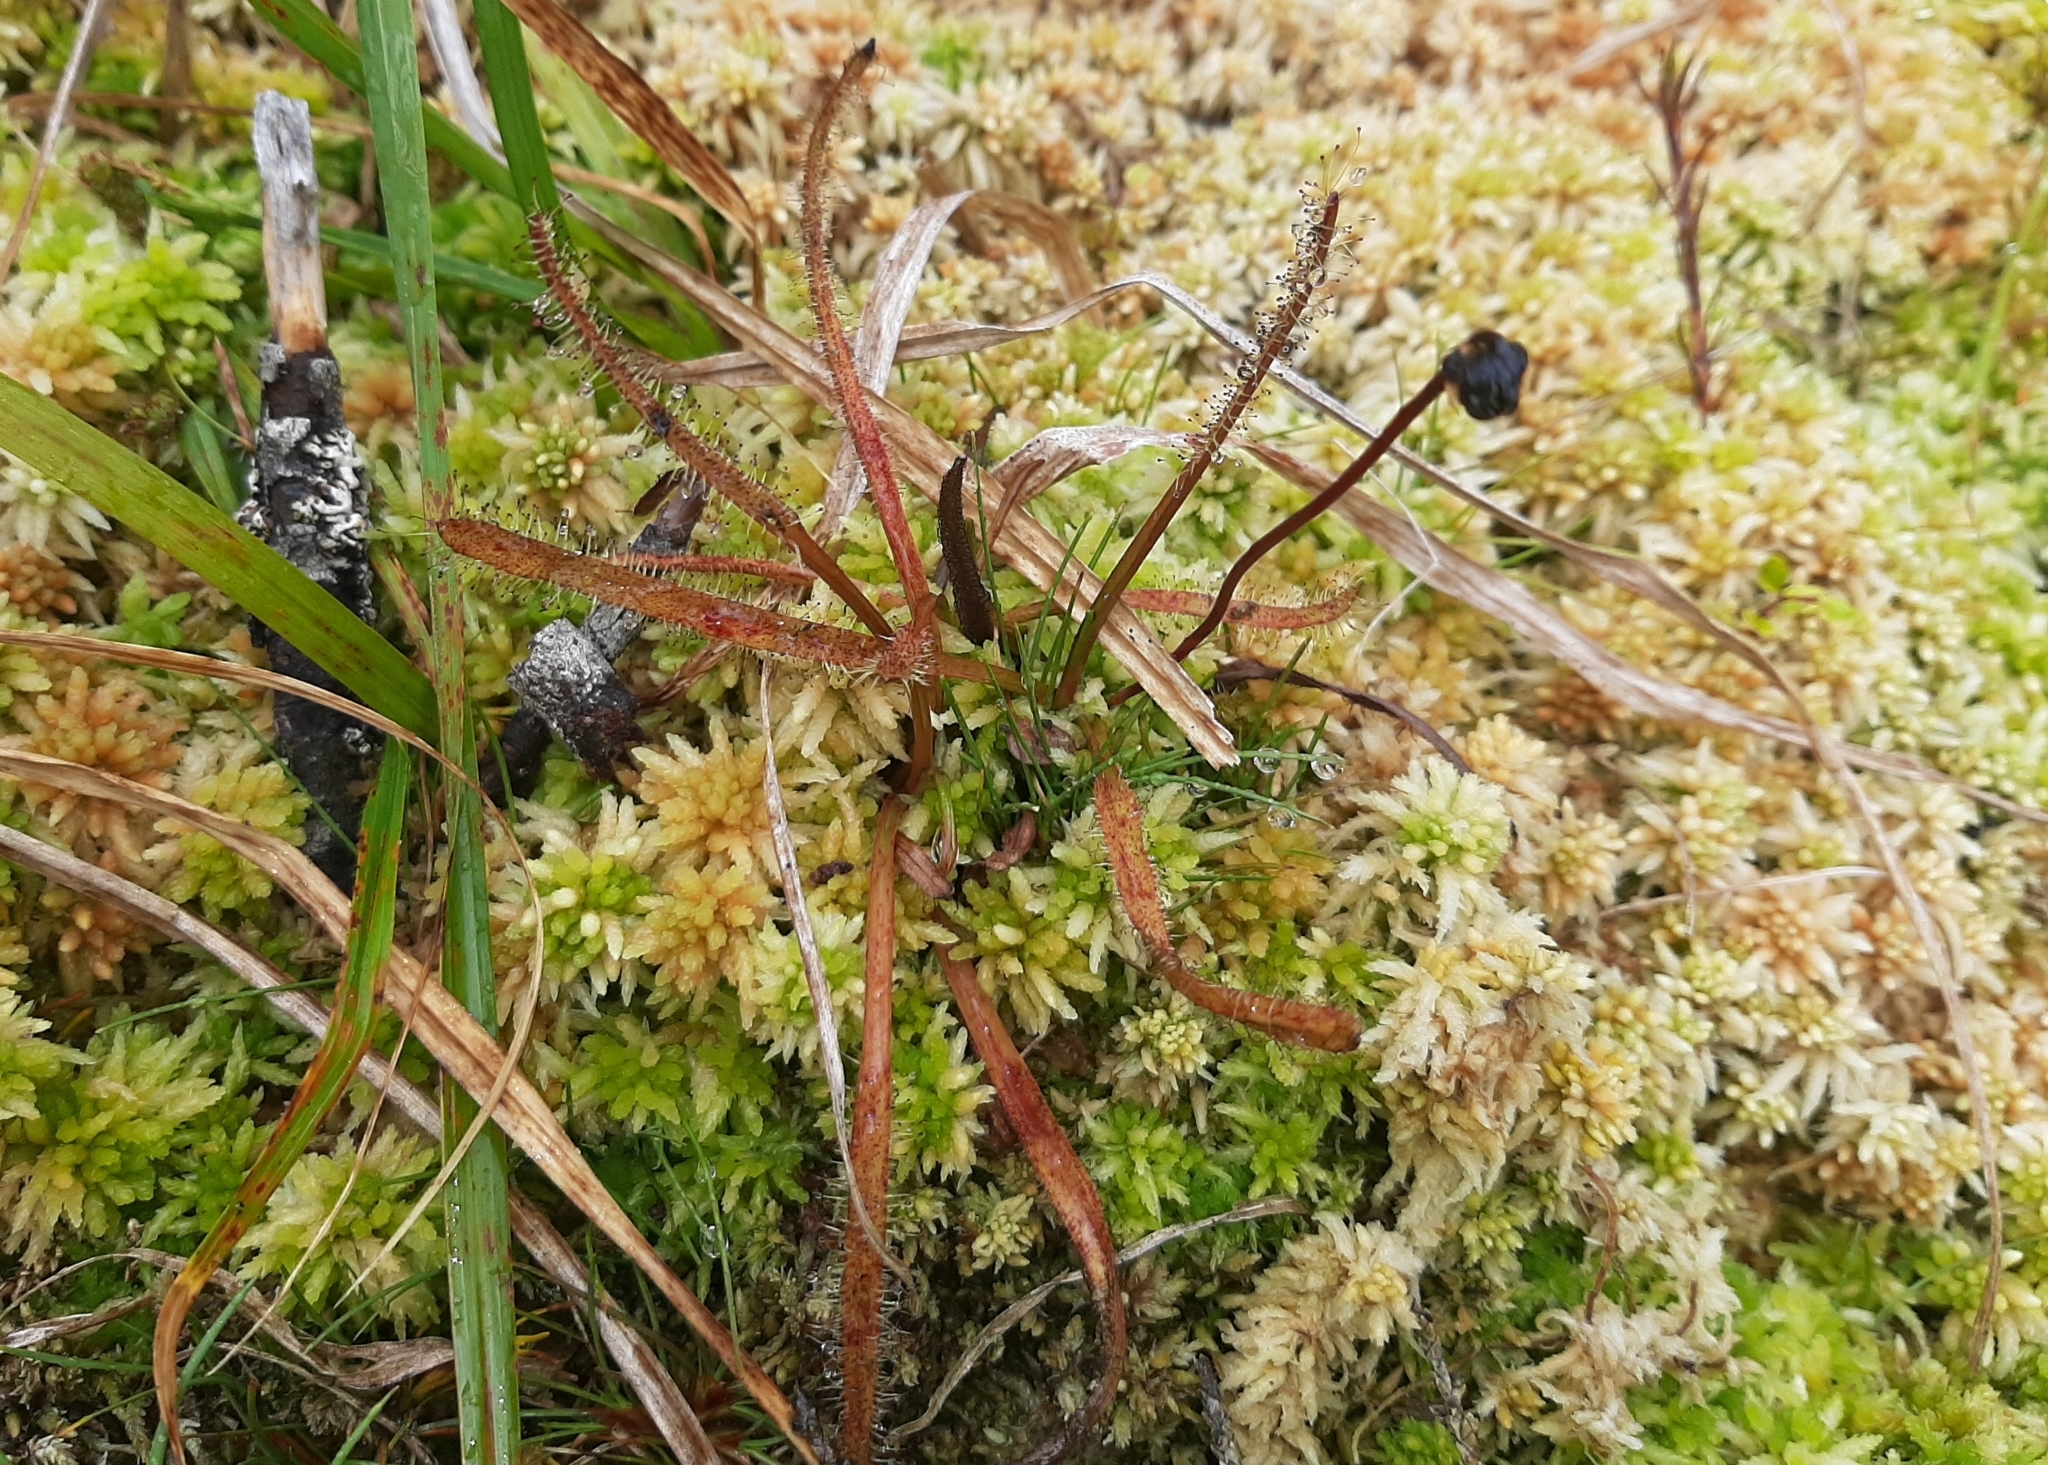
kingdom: Plantae
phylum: Tracheophyta
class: Magnoliopsida
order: Caryophyllales
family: Droseraceae
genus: Drosera
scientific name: Drosera arcturi
